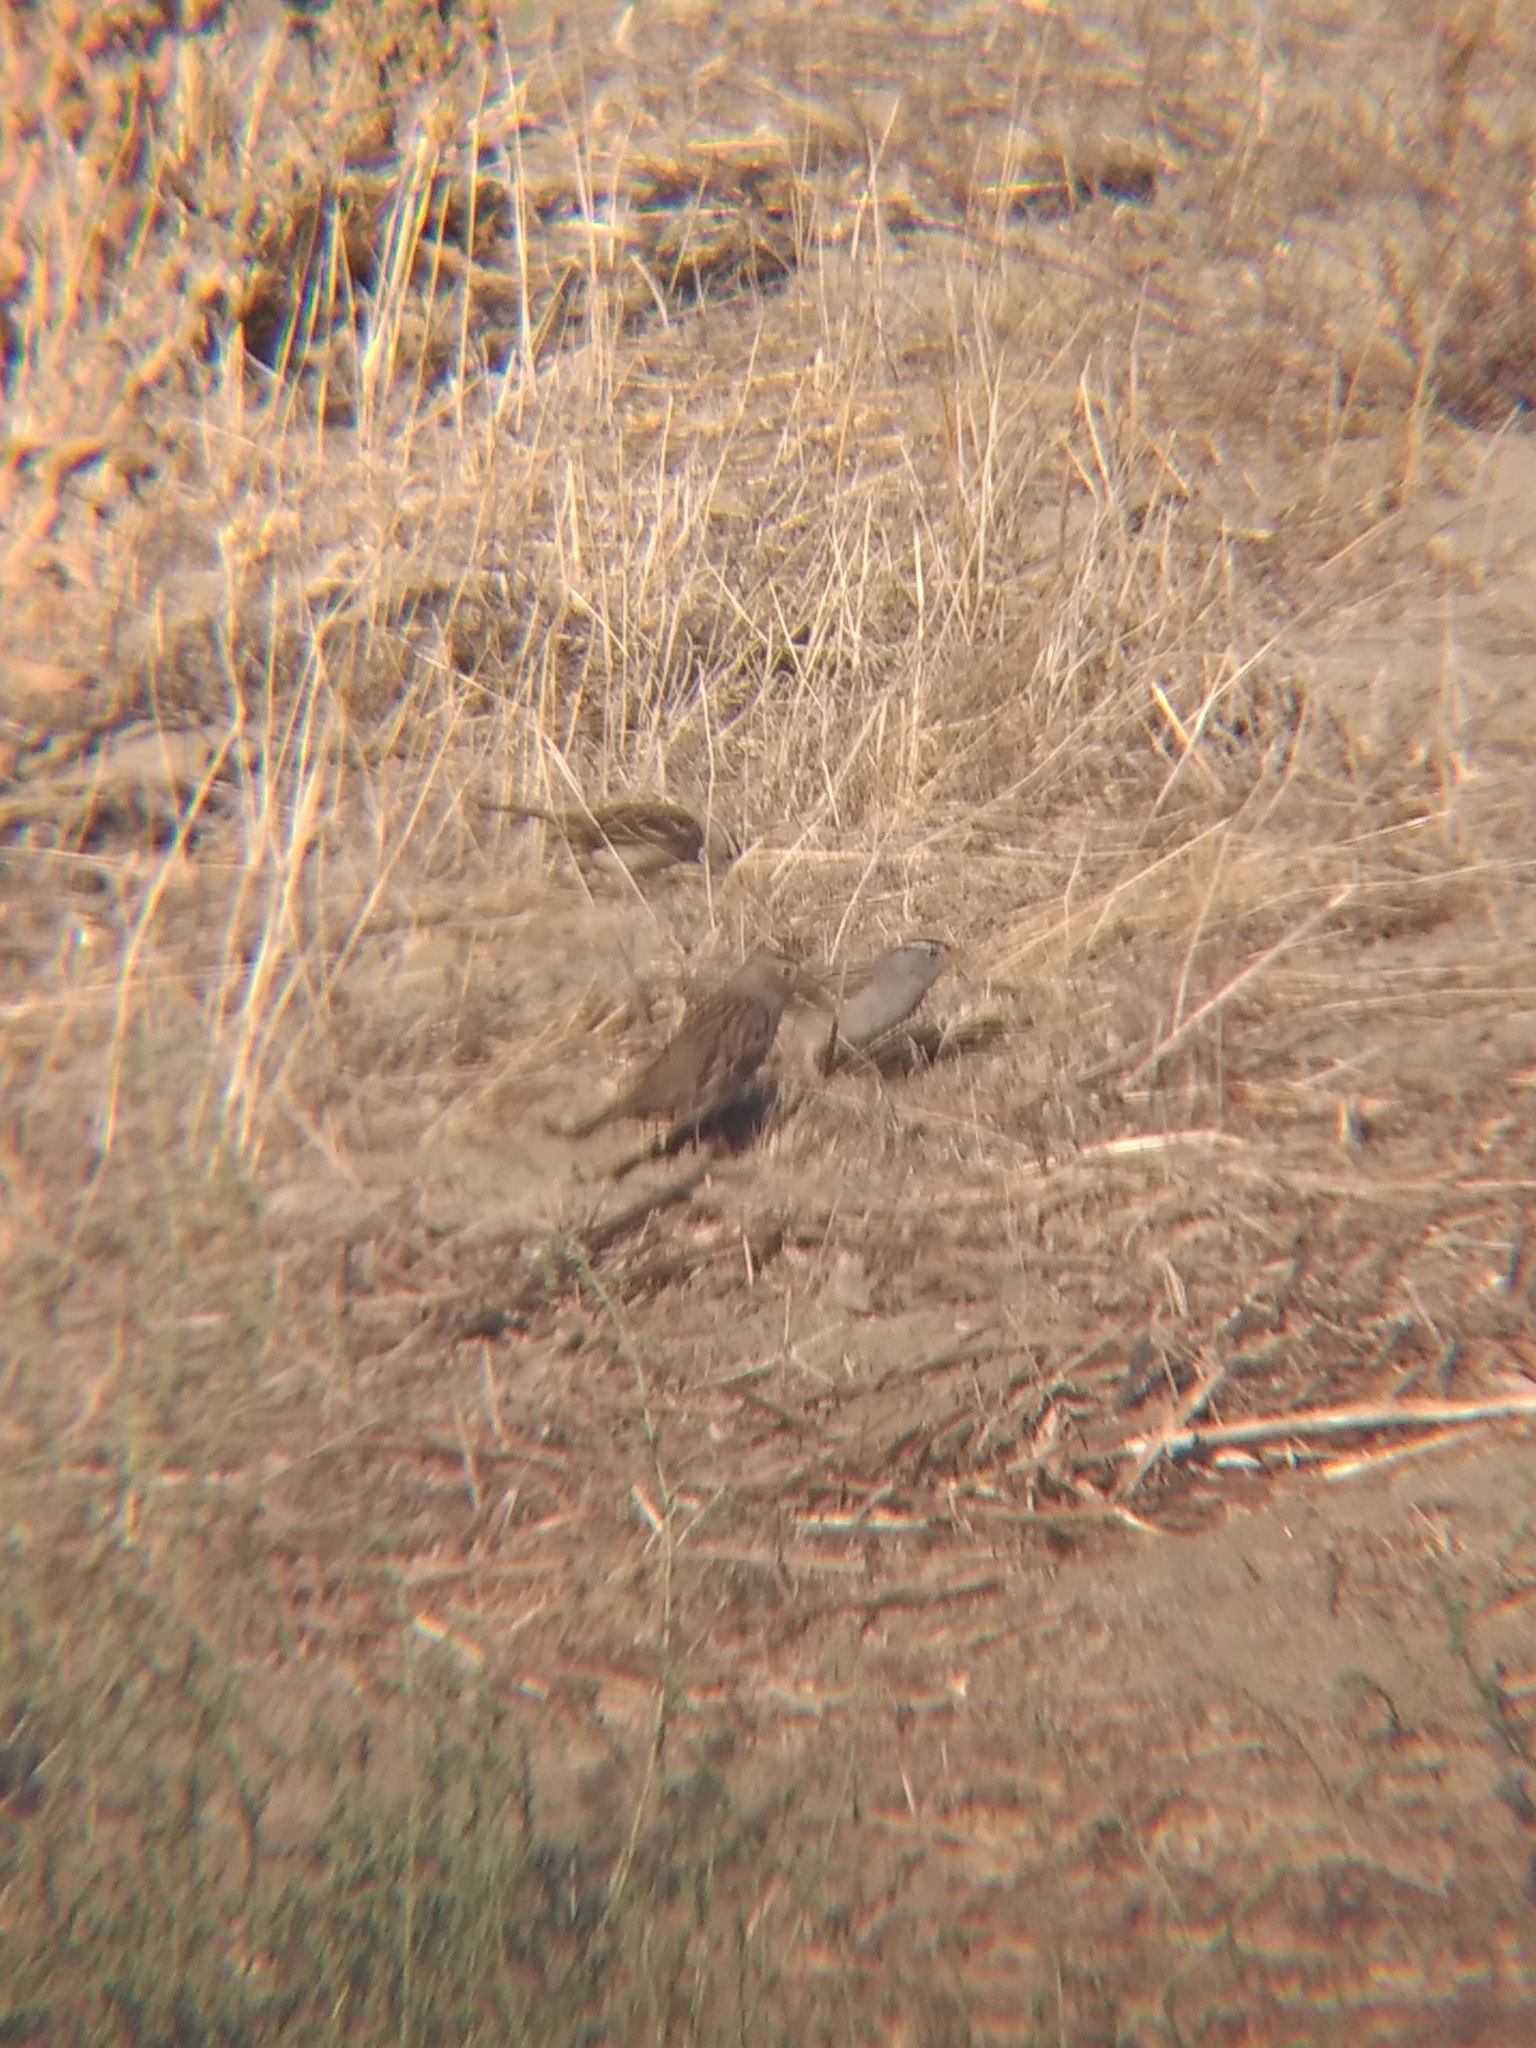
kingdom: Animalia
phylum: Chordata
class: Aves
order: Passeriformes
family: Passerellidae
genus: Zonotrichia
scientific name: Zonotrichia leucophrys
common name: White-crowned sparrow
